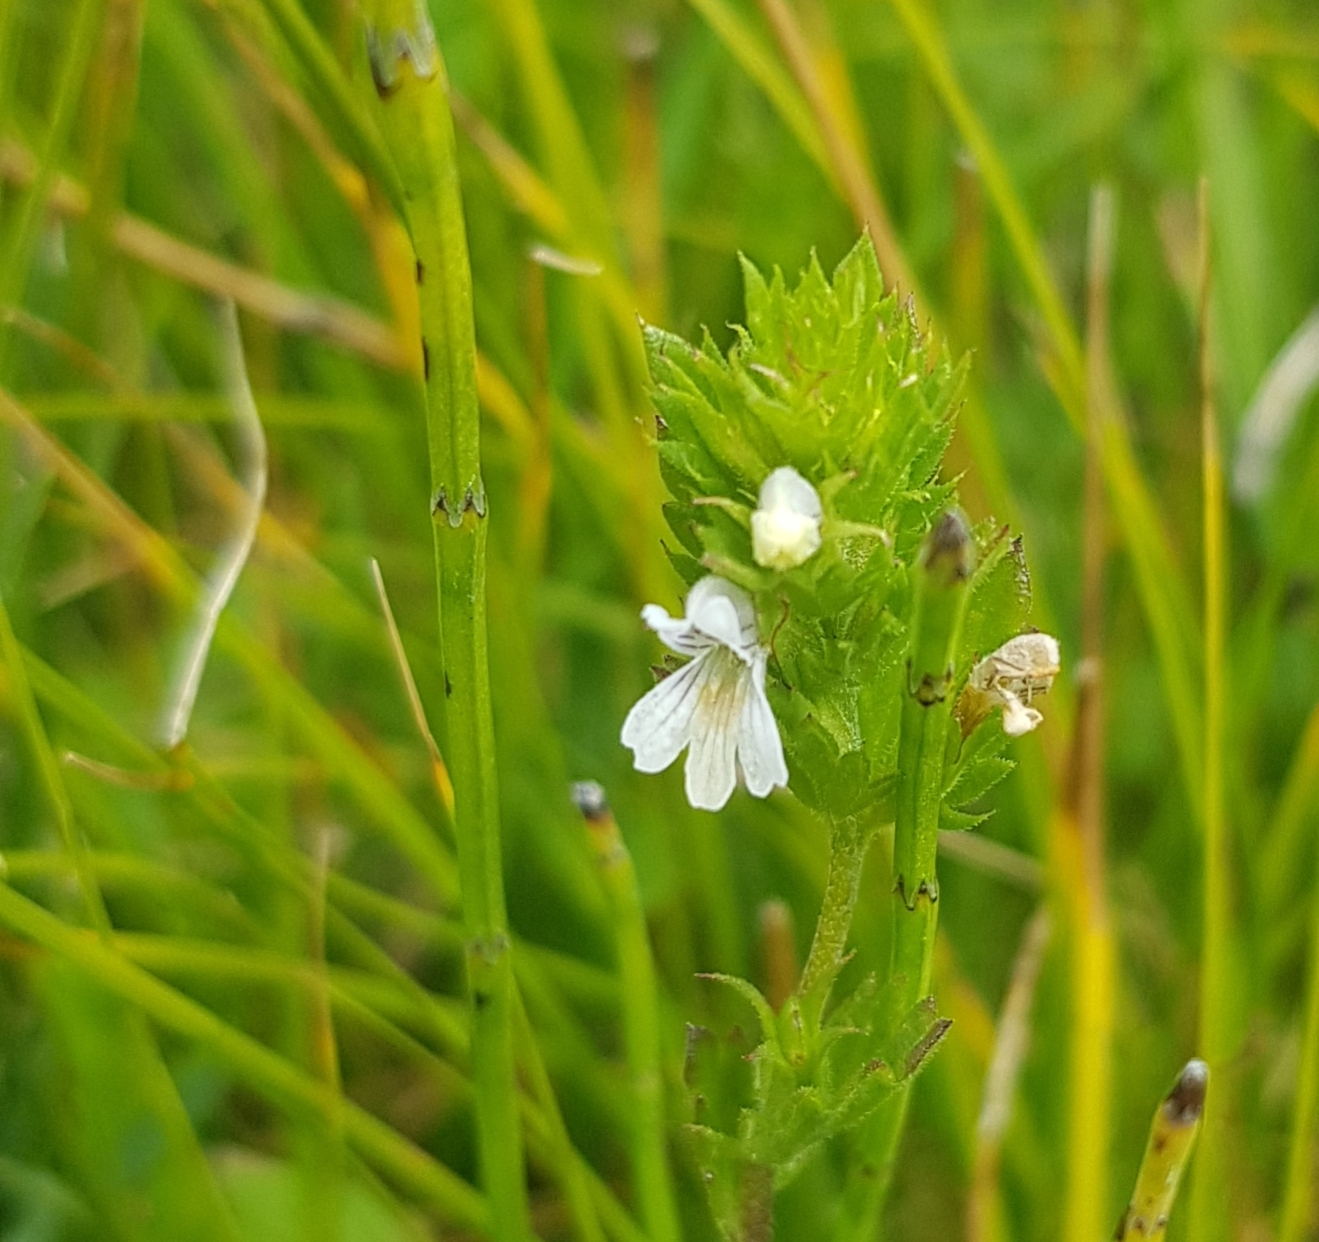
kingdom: Plantae
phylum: Tracheophyta
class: Magnoliopsida
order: Lamiales
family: Orobanchaceae
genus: Euphrasia
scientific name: Euphrasia syreitschikovii
